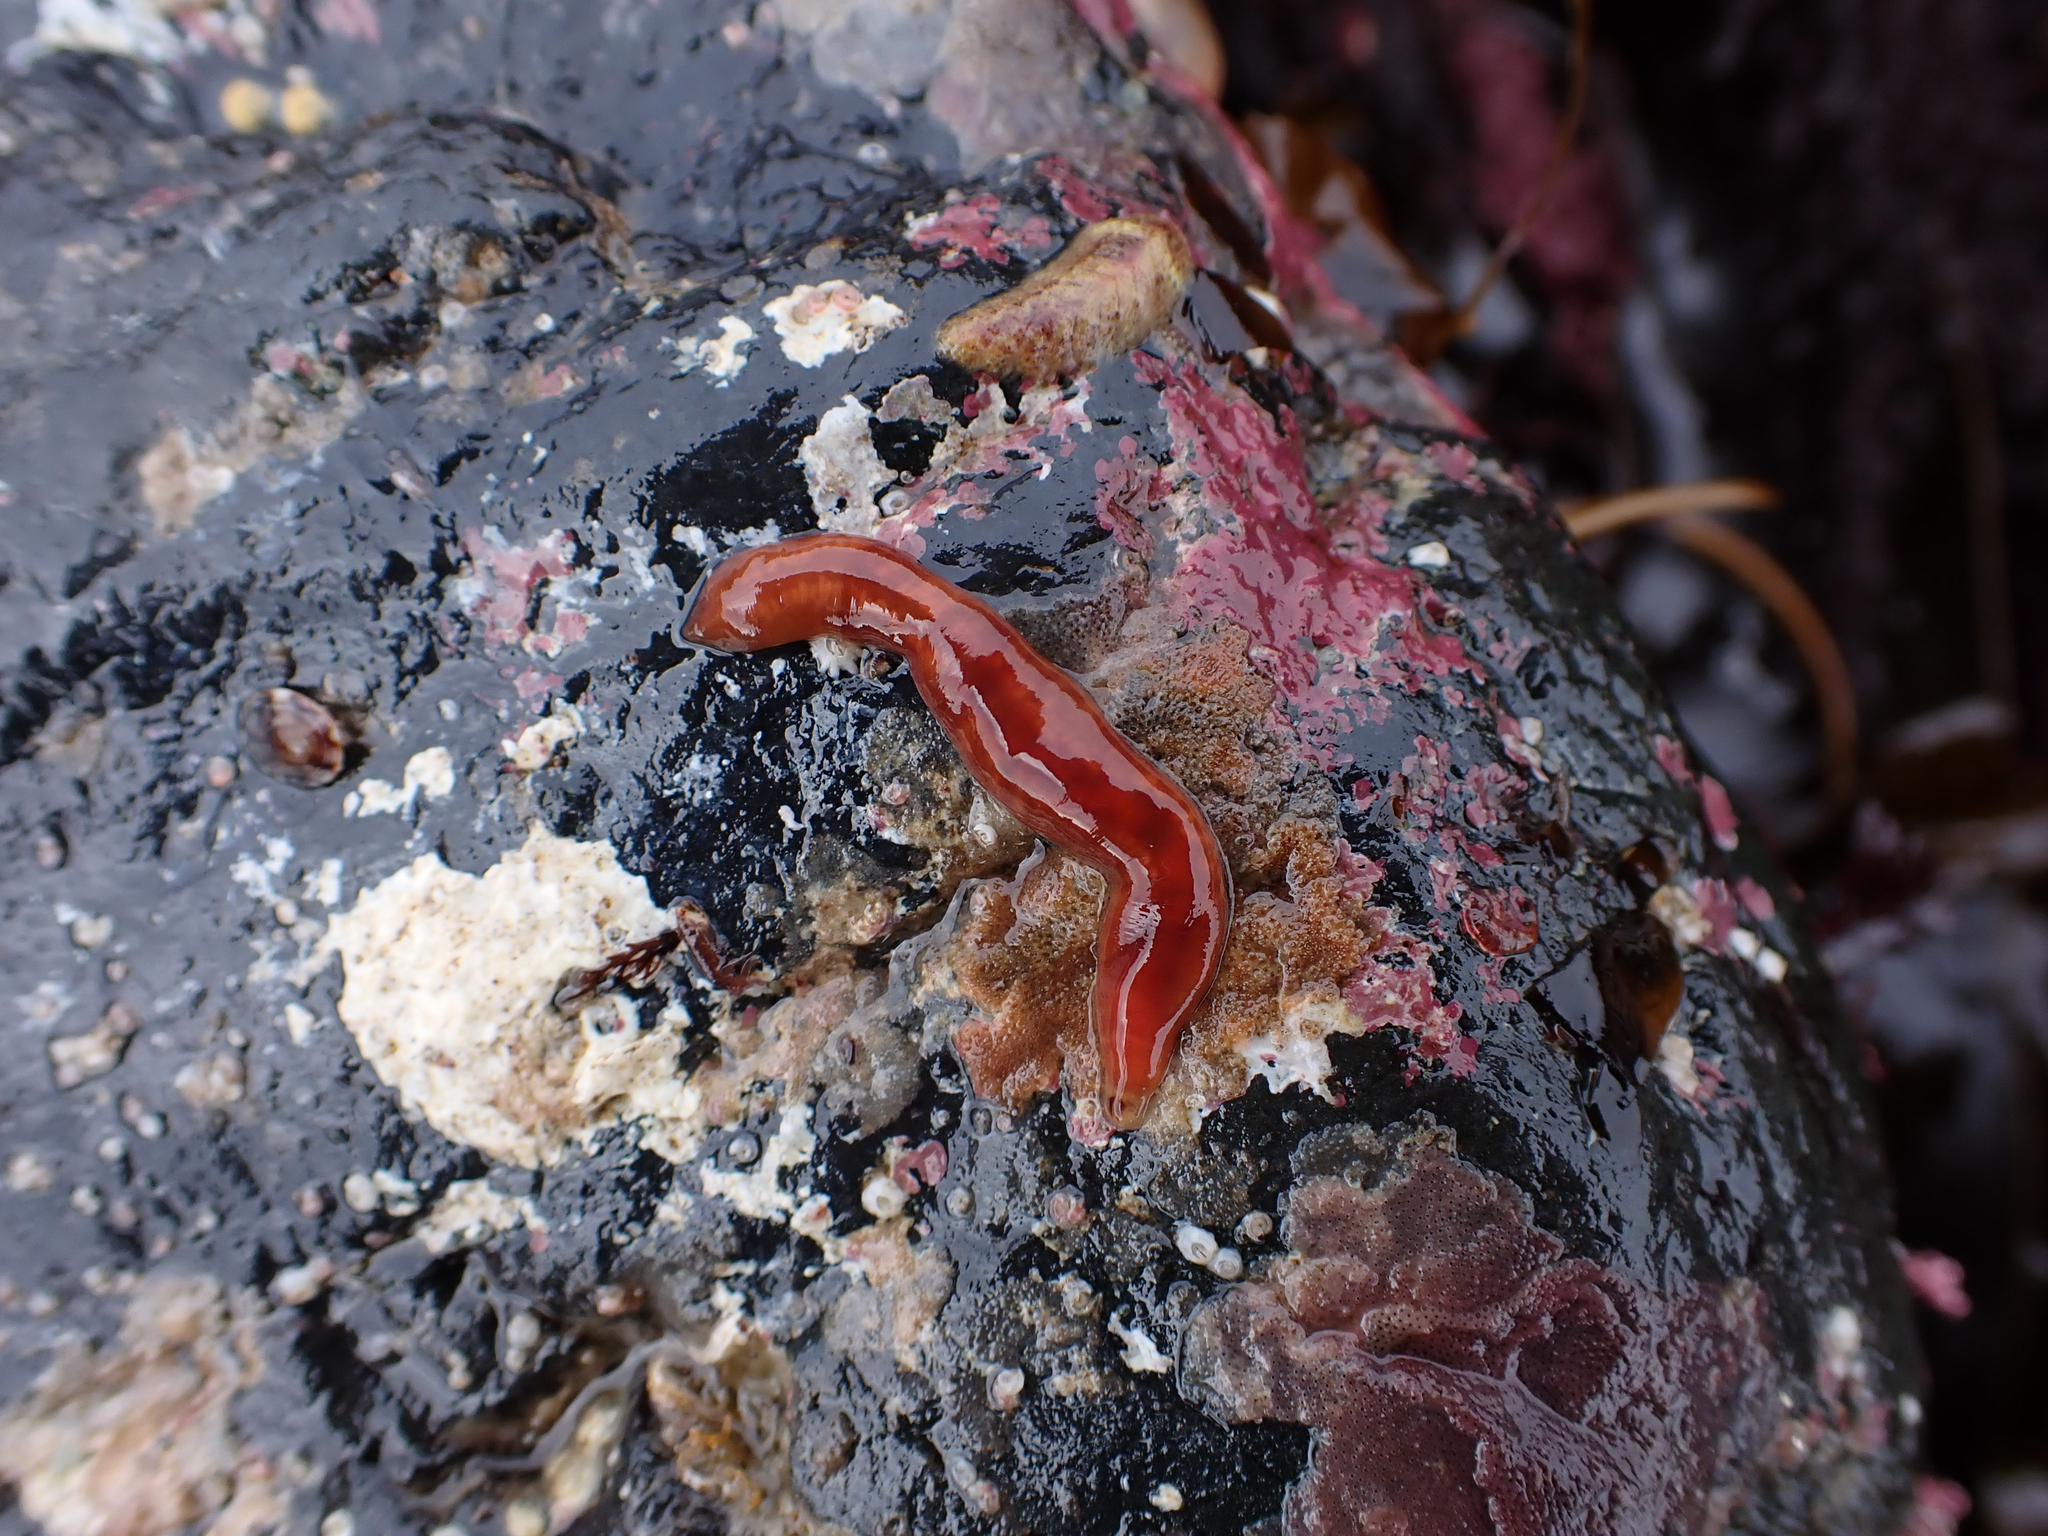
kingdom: Animalia
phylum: Nemertea
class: Hoplonemertea
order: Monostilifera
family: Cratenemertidae
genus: Nipponnemertes
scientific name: Nipponnemertes bimaculata
